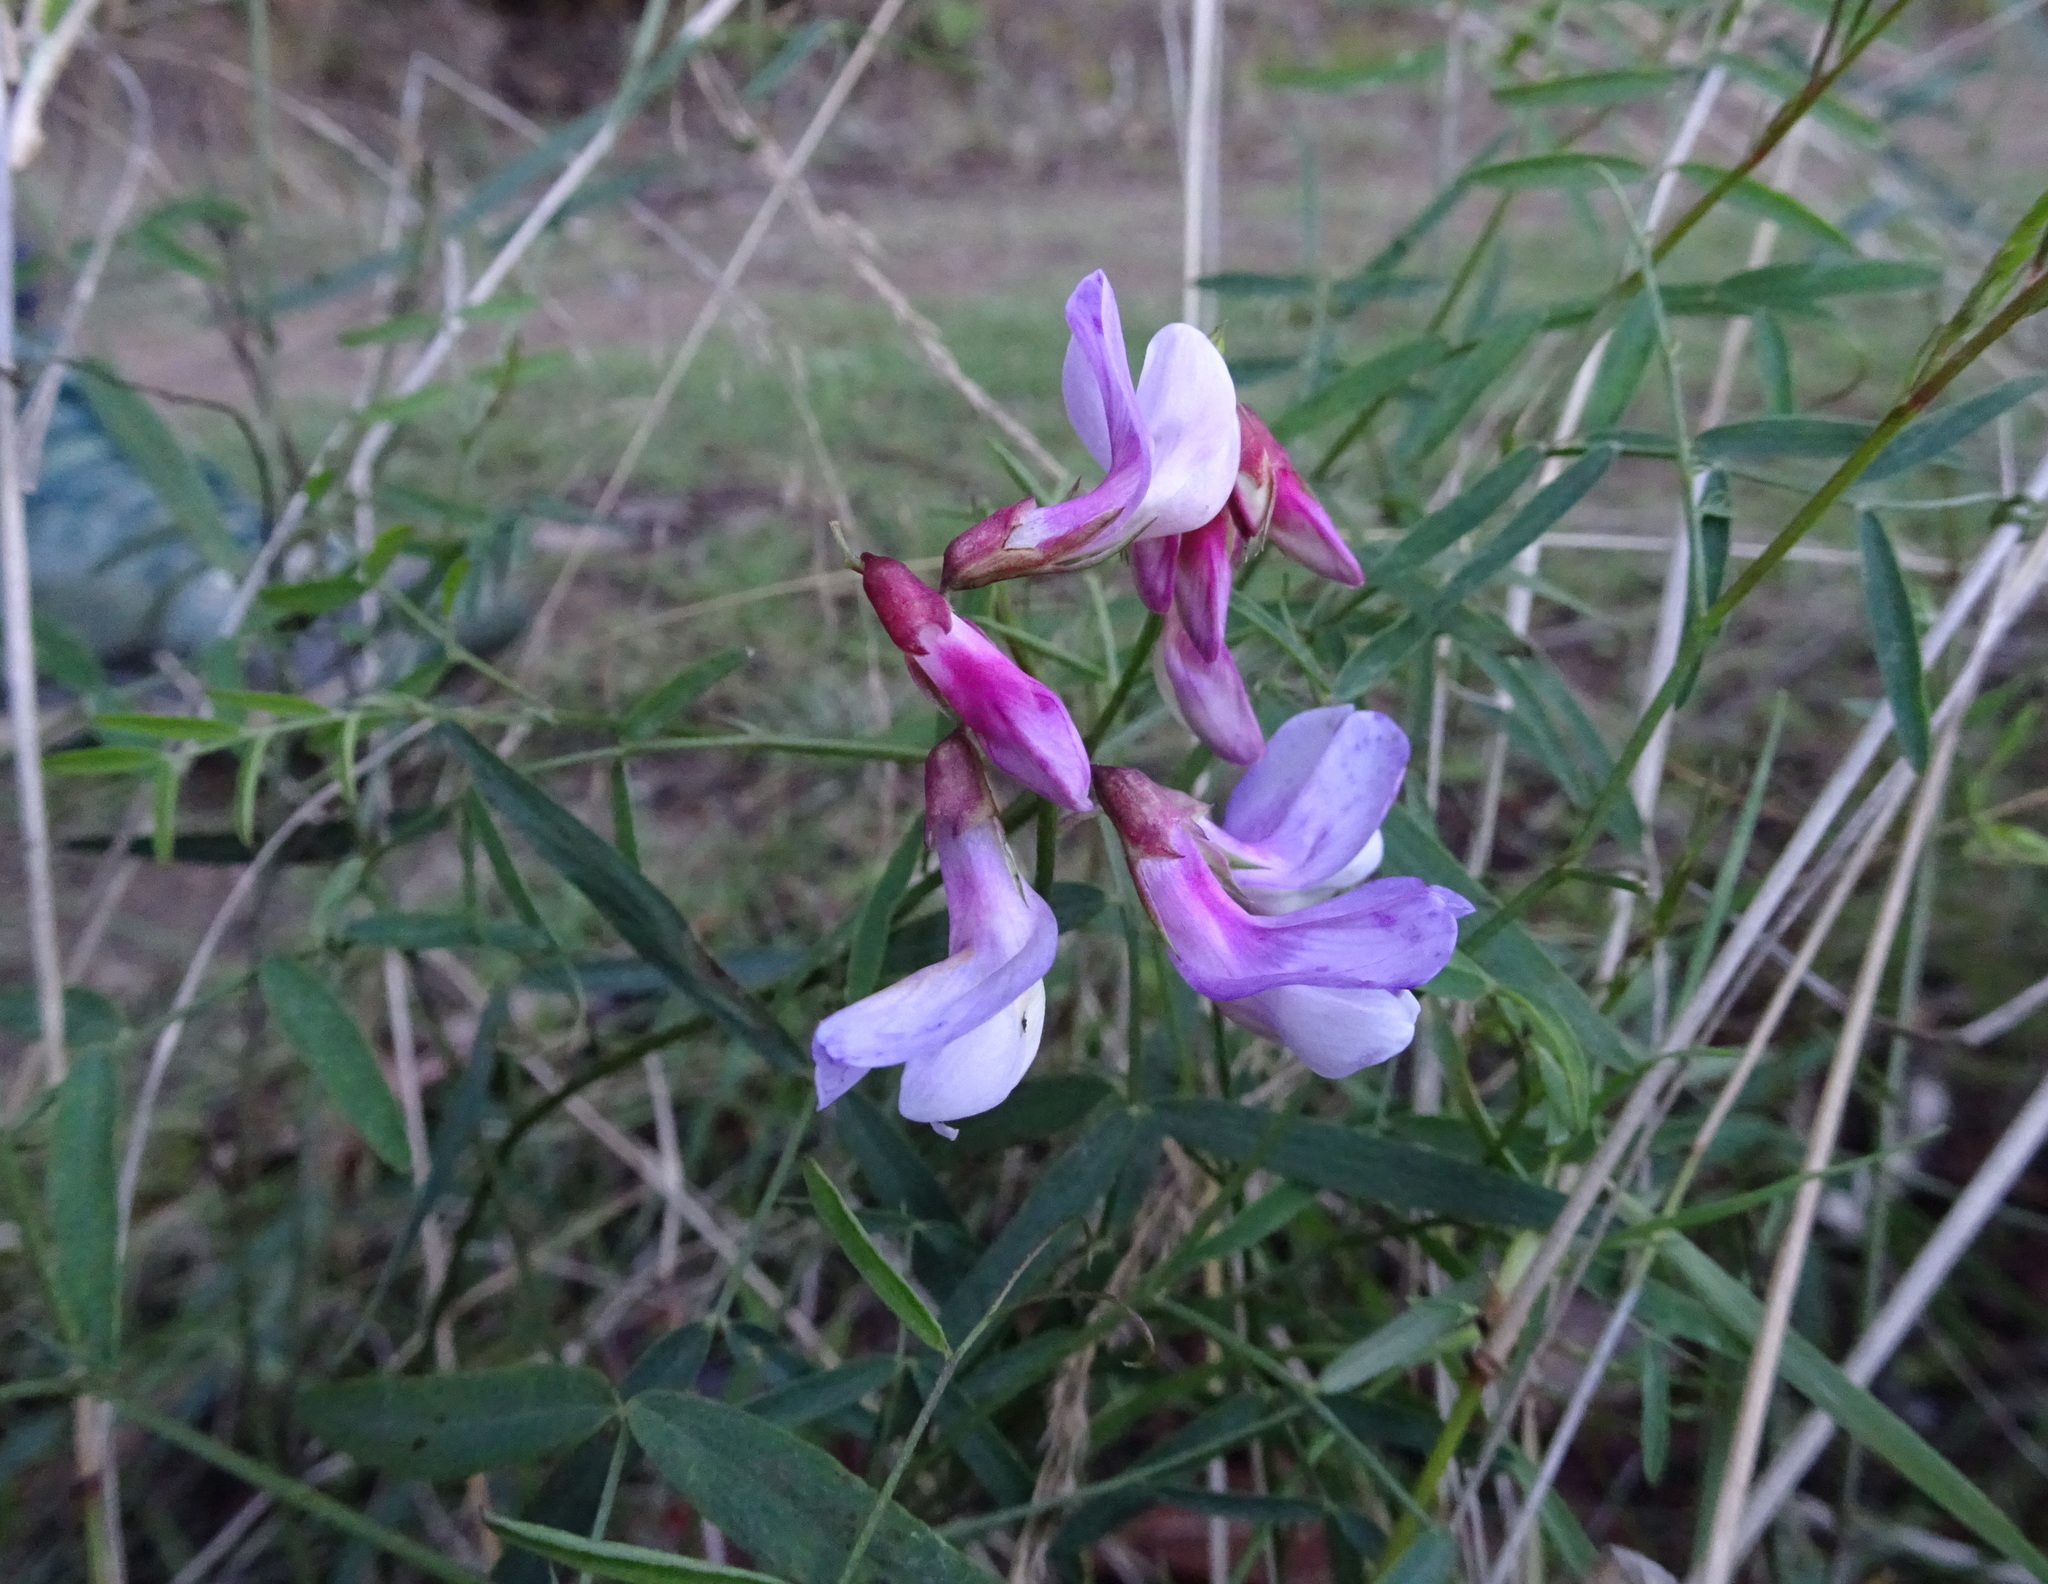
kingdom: Plantae
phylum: Tracheophyta
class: Magnoliopsida
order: Fabales
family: Fabaceae
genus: Lathyrus
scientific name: Lathyrus vestitus
